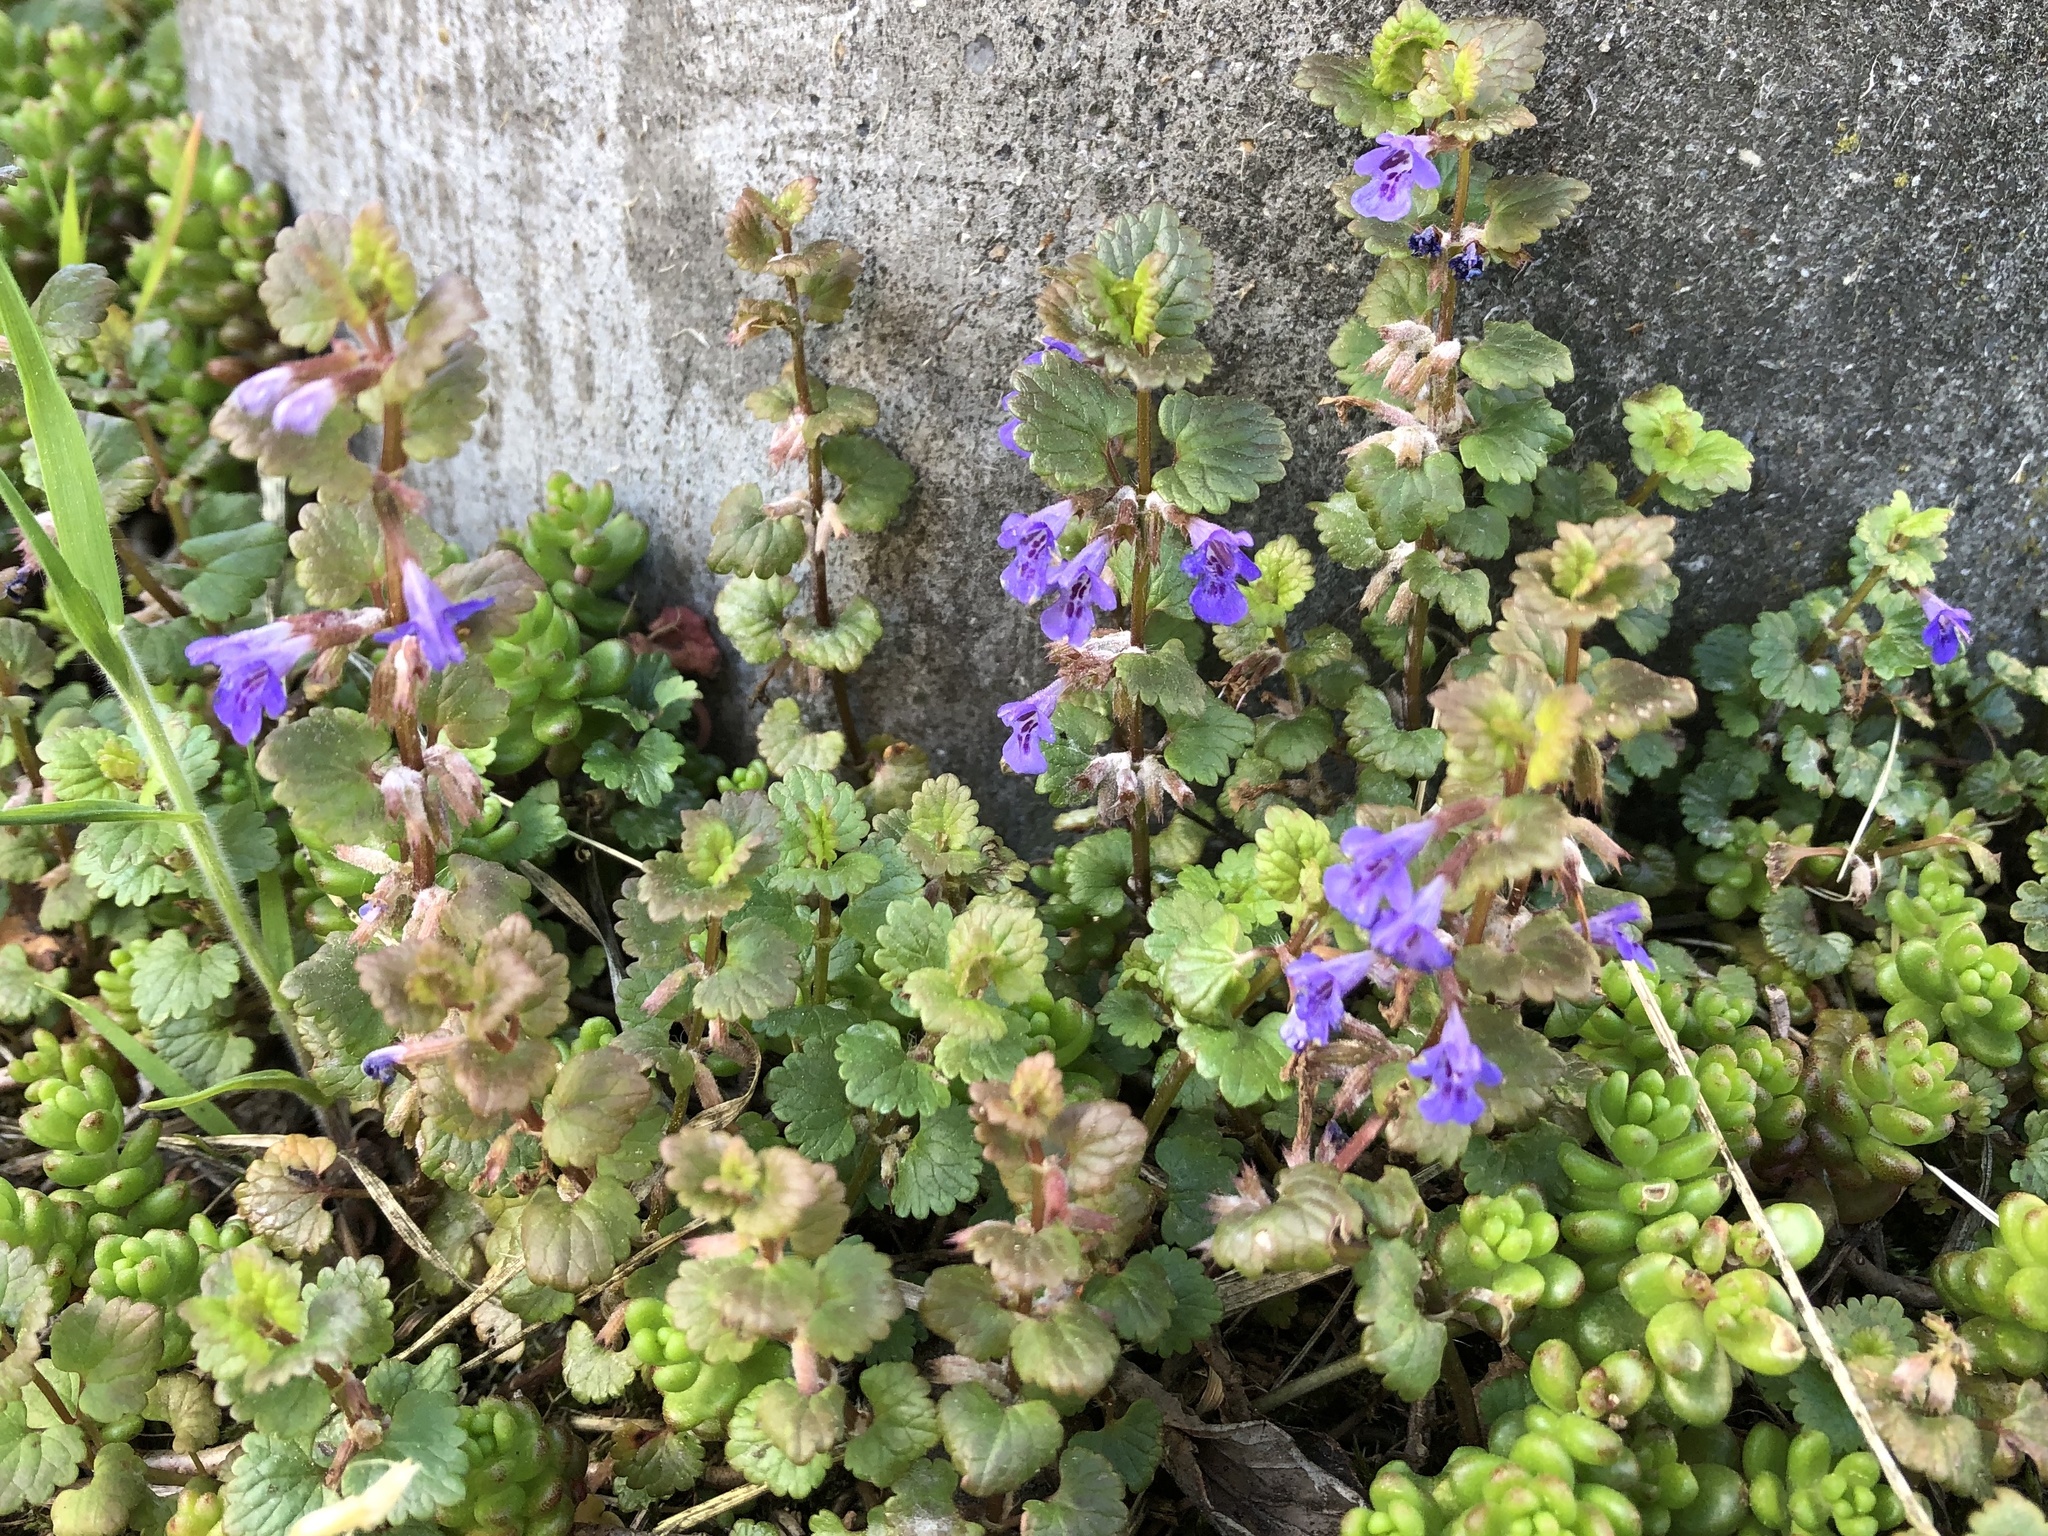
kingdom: Plantae
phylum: Tracheophyta
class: Magnoliopsida
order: Lamiales
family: Lamiaceae
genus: Glechoma
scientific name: Glechoma hederacea
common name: Ground ivy
